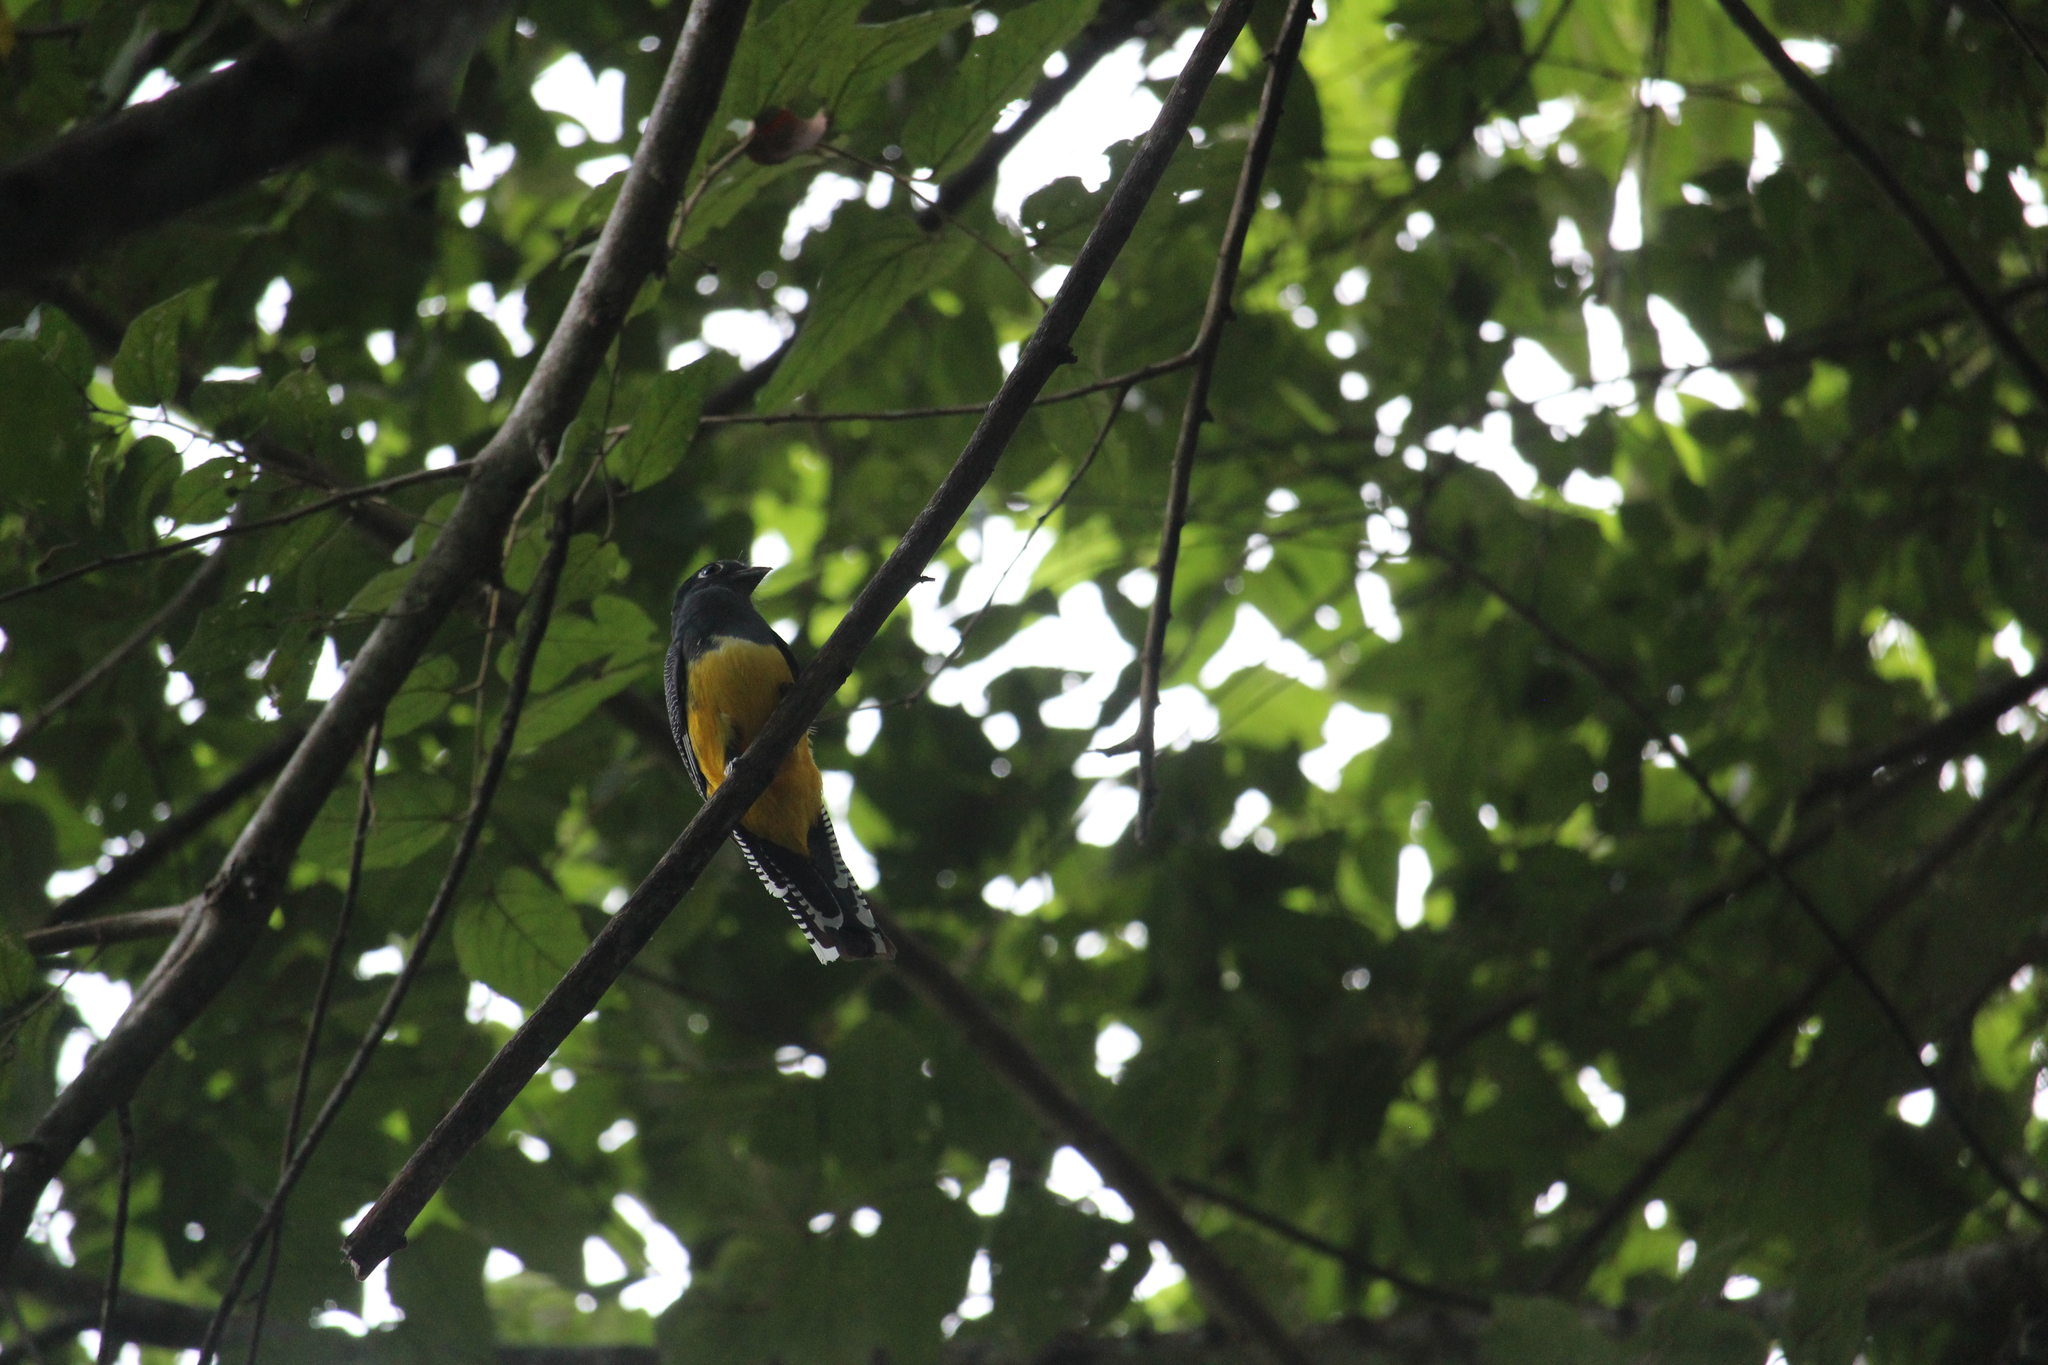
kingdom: Animalia
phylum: Chordata
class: Aves
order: Trogoniformes
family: Trogonidae
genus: Trogon
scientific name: Trogon caligatus
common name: Gartered trogon
